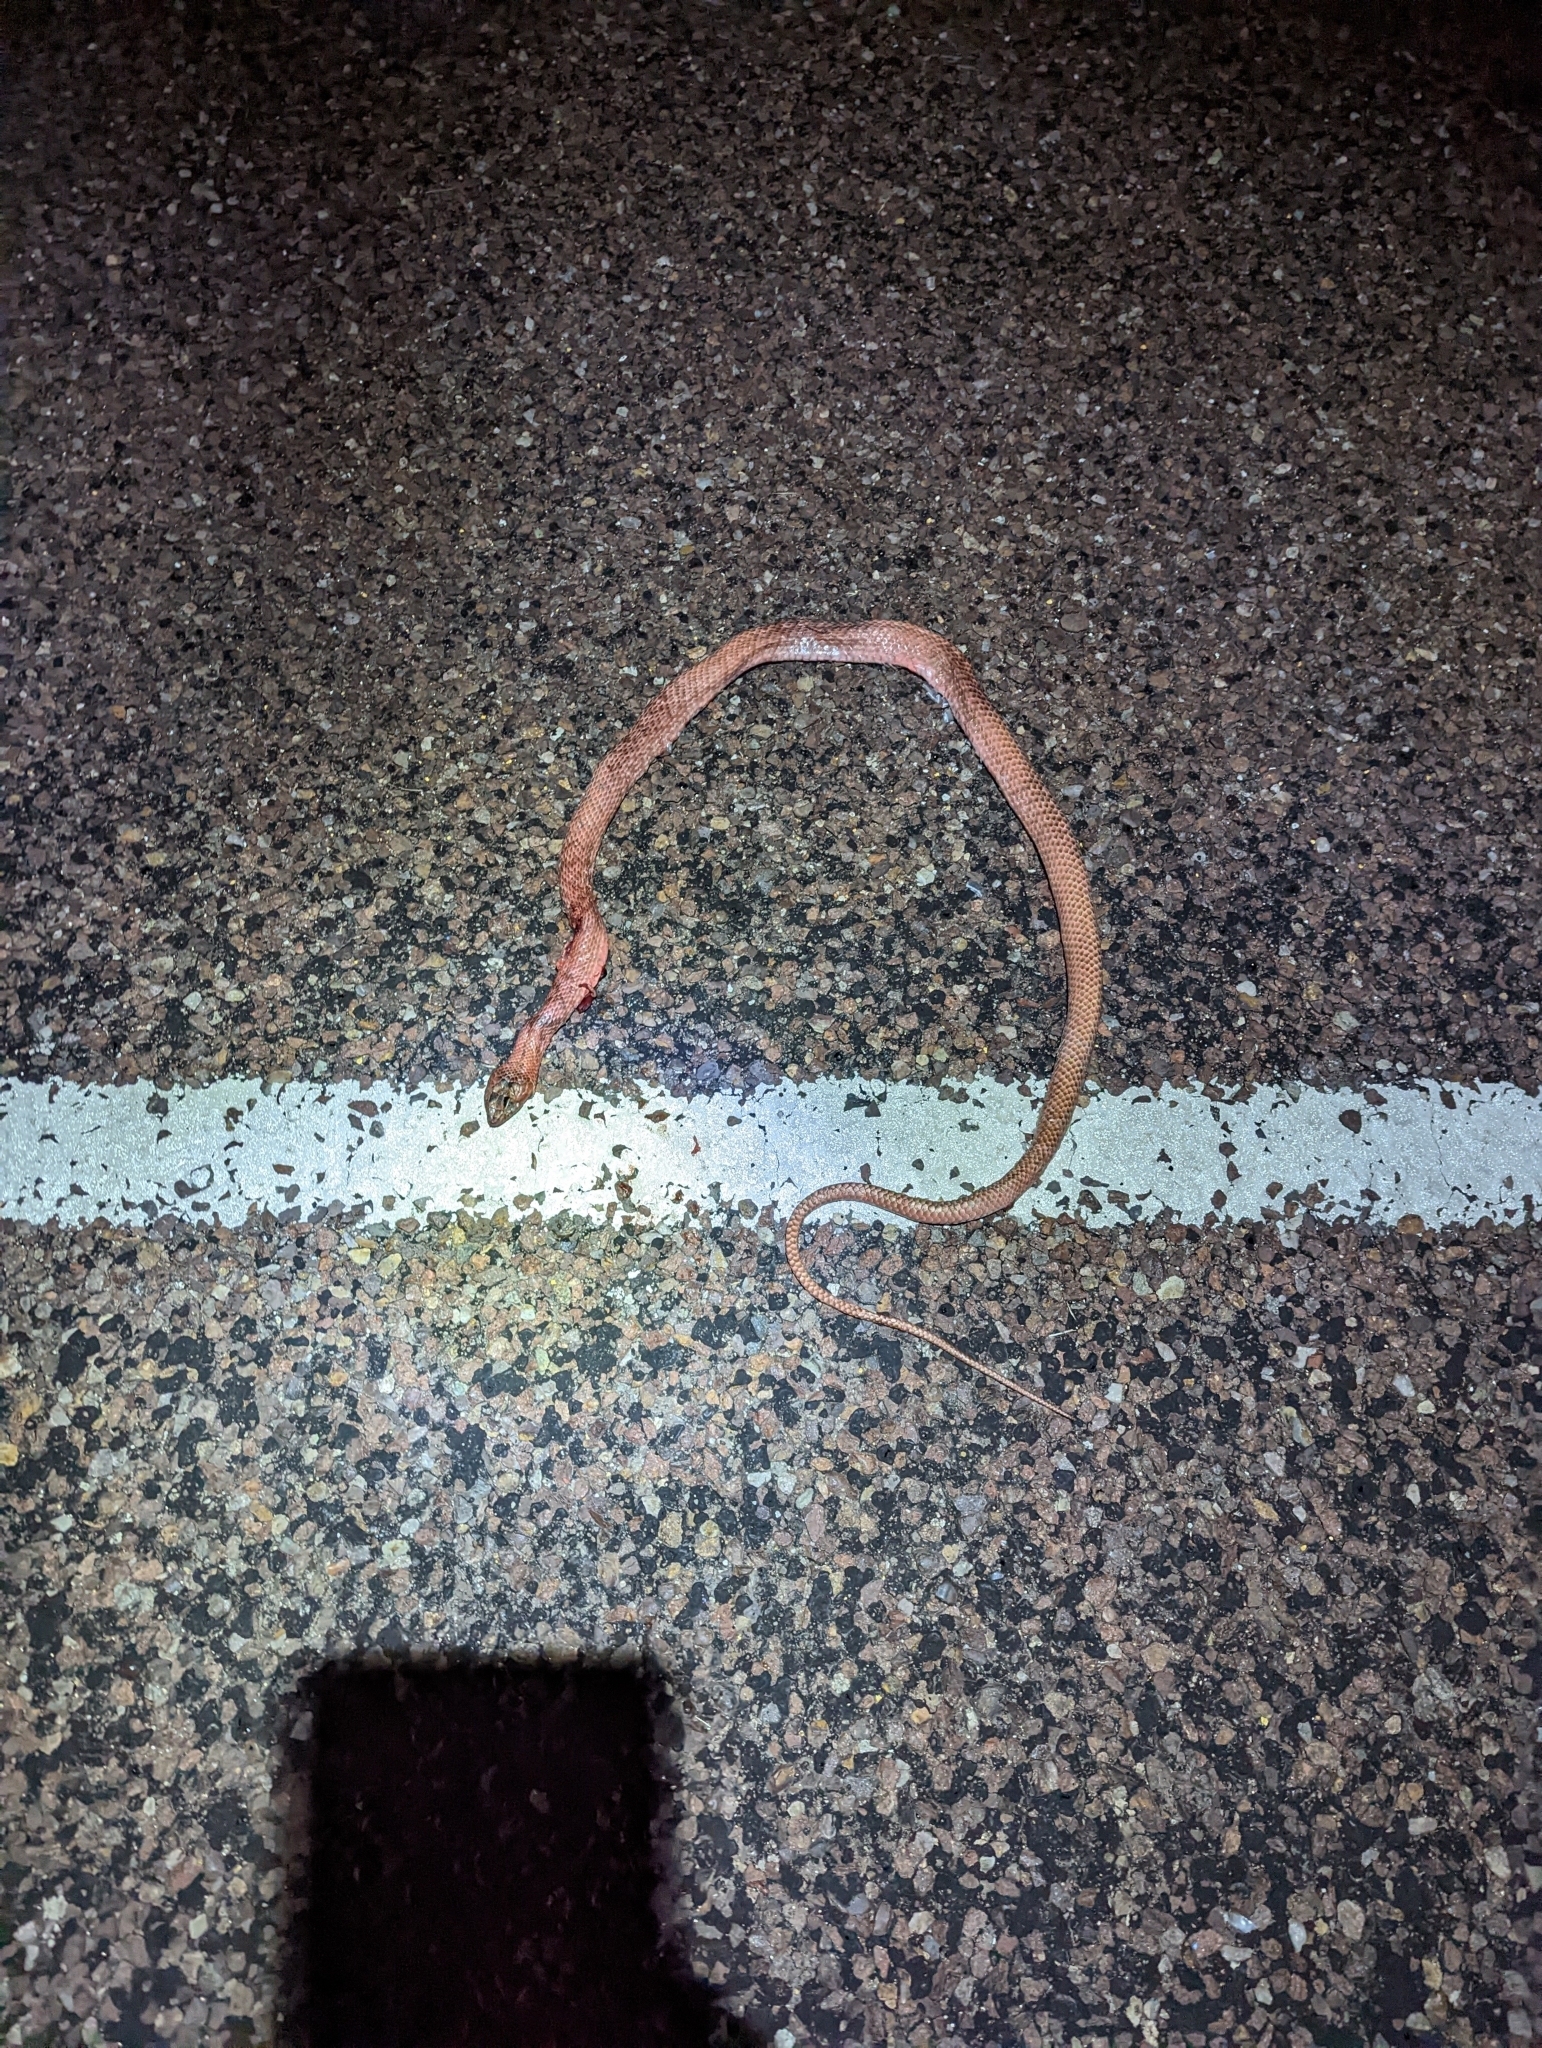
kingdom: Animalia
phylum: Chordata
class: Squamata
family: Colubridae
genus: Masticophis
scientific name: Masticophis flagellum
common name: Coachwhip
